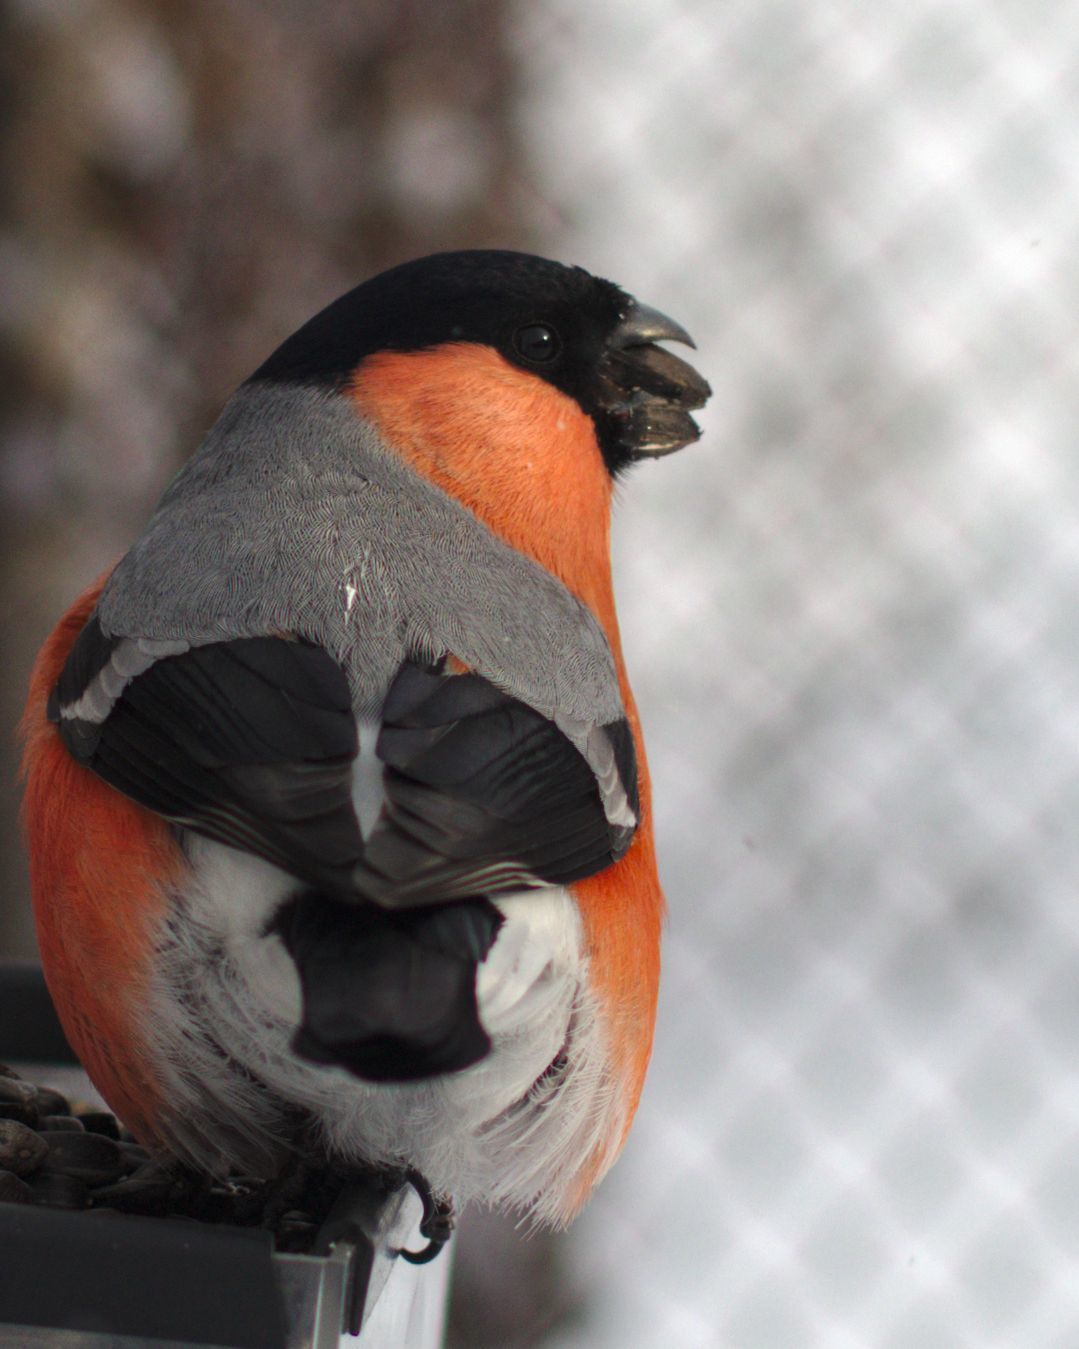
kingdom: Animalia
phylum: Chordata
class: Aves
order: Passeriformes
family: Fringillidae
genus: Pyrrhula
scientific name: Pyrrhula pyrrhula
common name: Eurasian bullfinch
